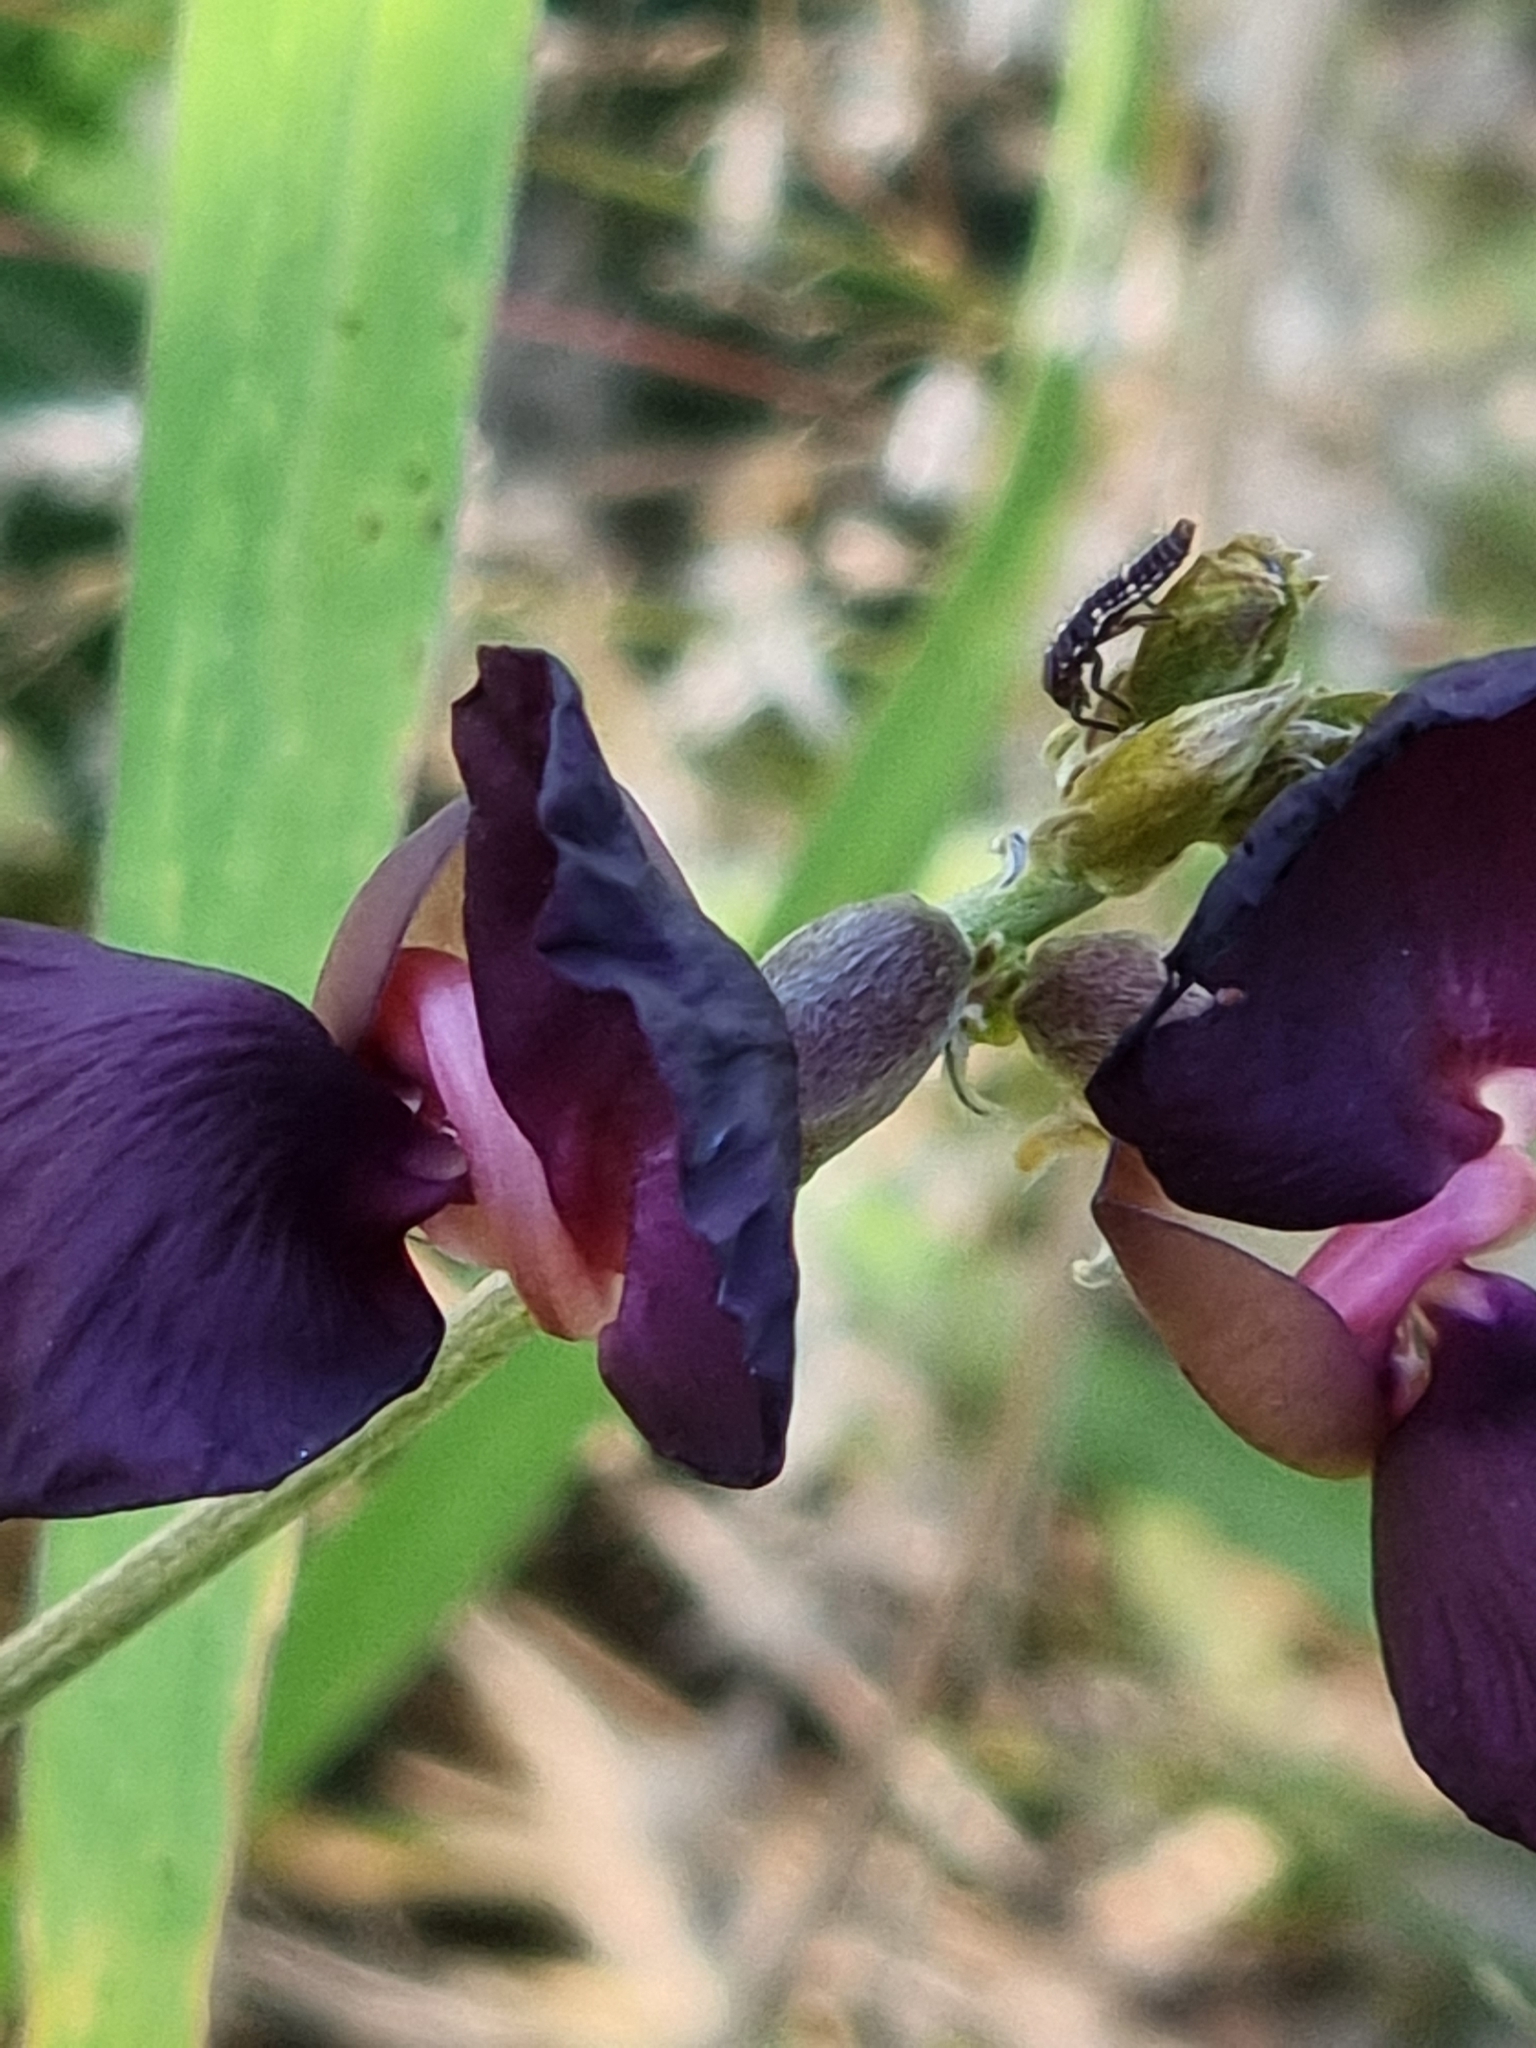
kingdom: Plantae
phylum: Tracheophyta
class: Magnoliopsida
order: Fabales
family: Fabaceae
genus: Macroptilium
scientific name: Macroptilium atropurpureum
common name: Purple bushbean
